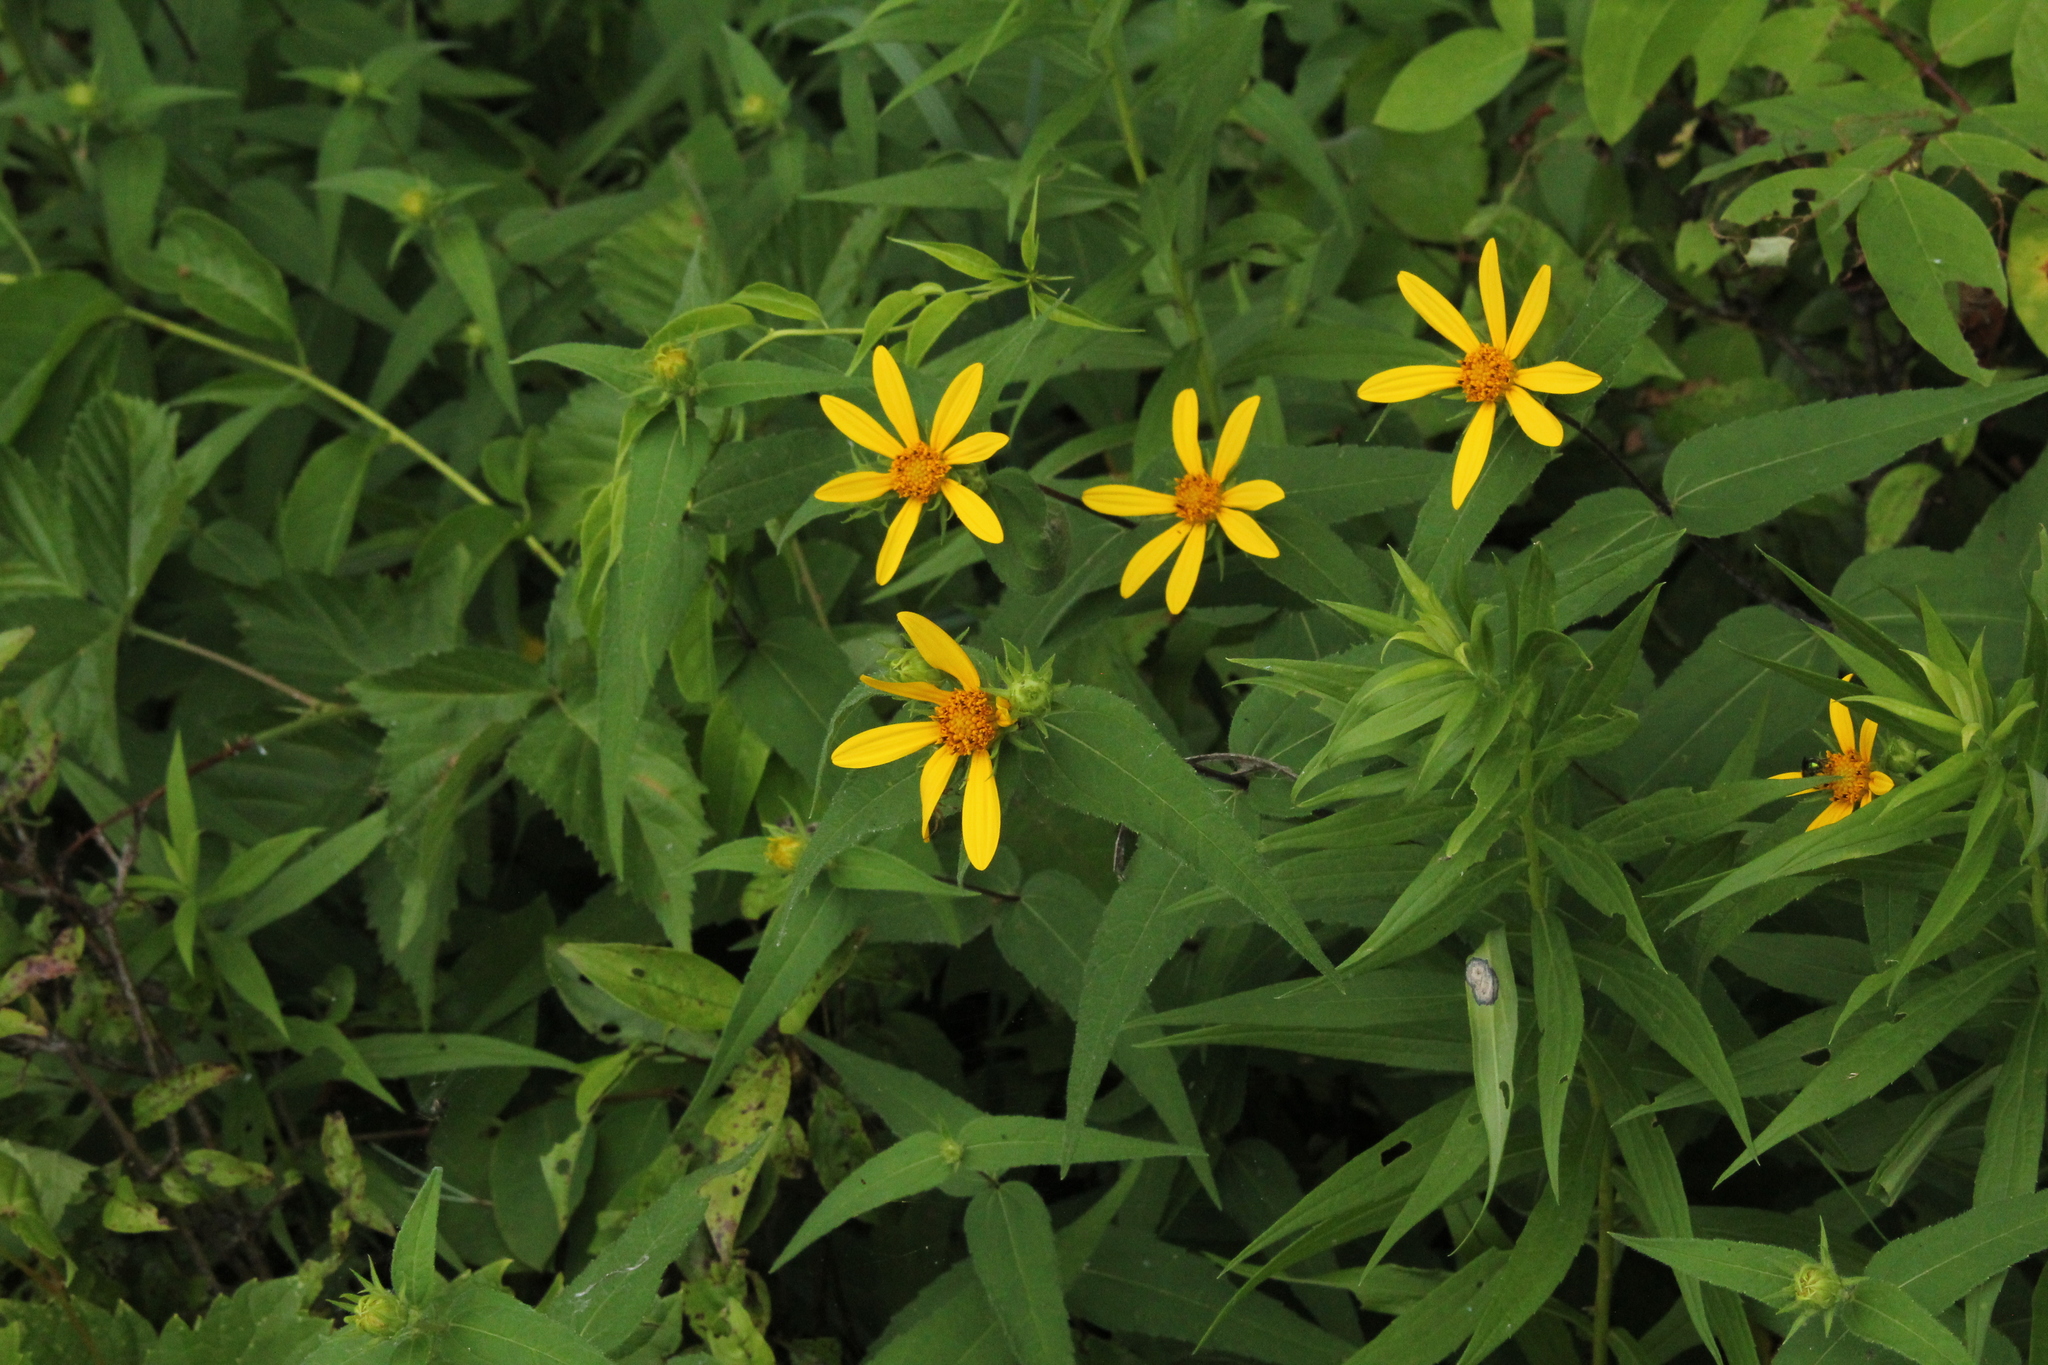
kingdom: Plantae
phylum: Tracheophyta
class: Magnoliopsida
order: Asterales
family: Asteraceae
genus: Helianthus
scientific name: Helianthus divaricatus
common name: Divergent sunflower
